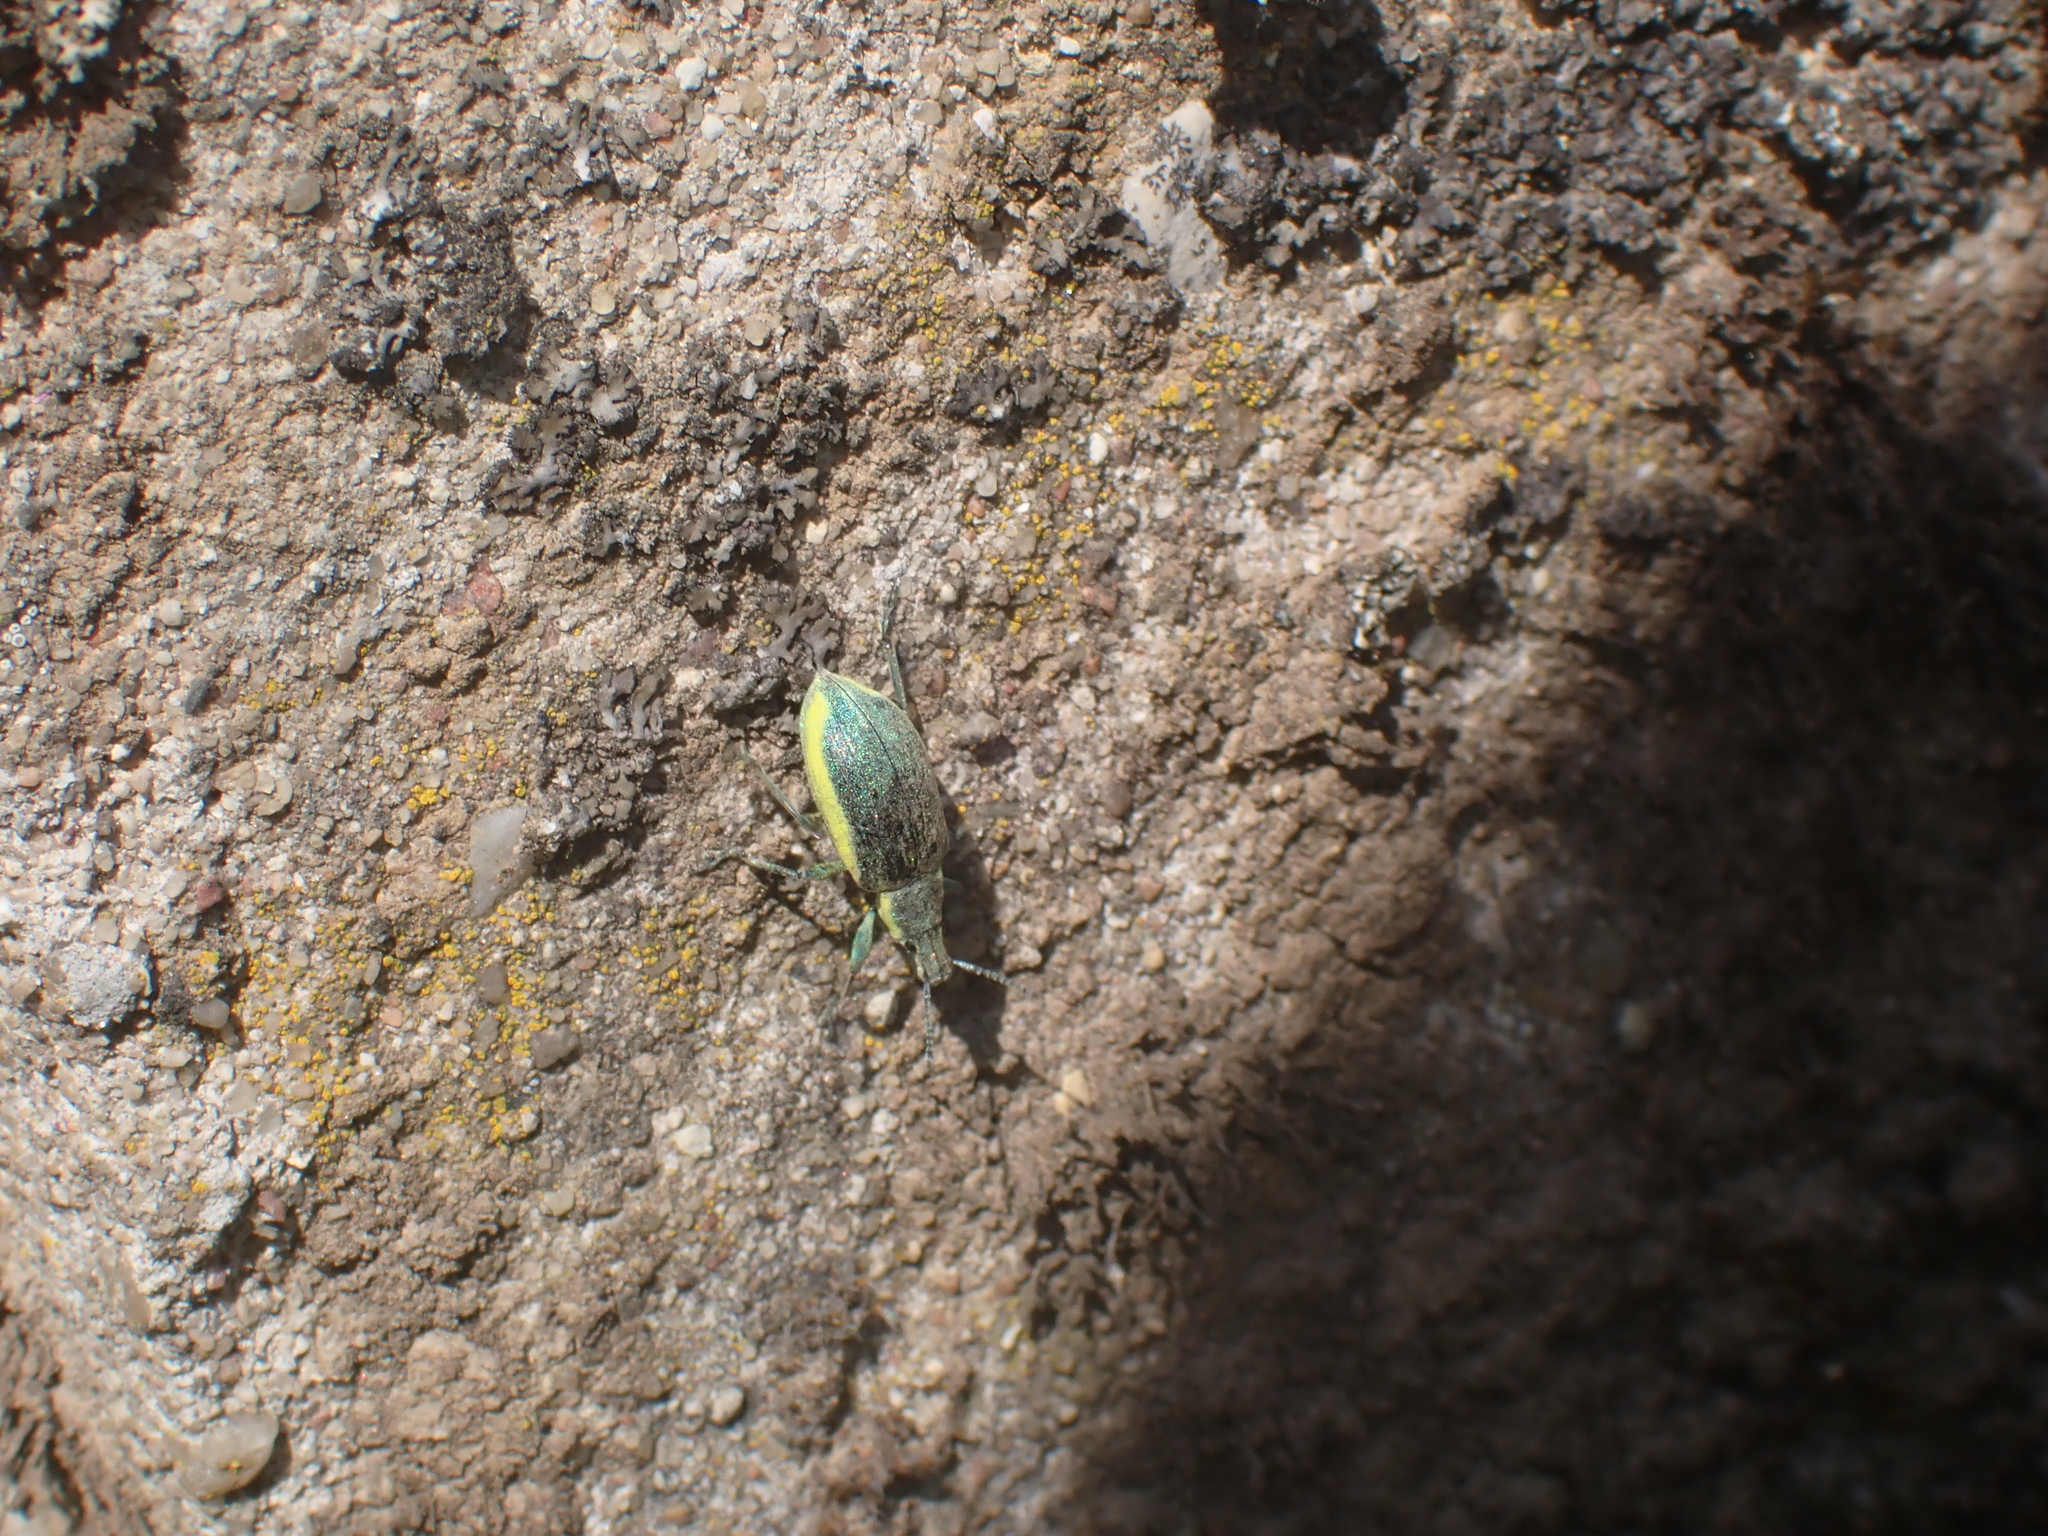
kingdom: Animalia
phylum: Arthropoda
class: Insecta
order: Coleoptera
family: Curculionidae
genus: Chlorophanus
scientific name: Chlorophanus viridis
